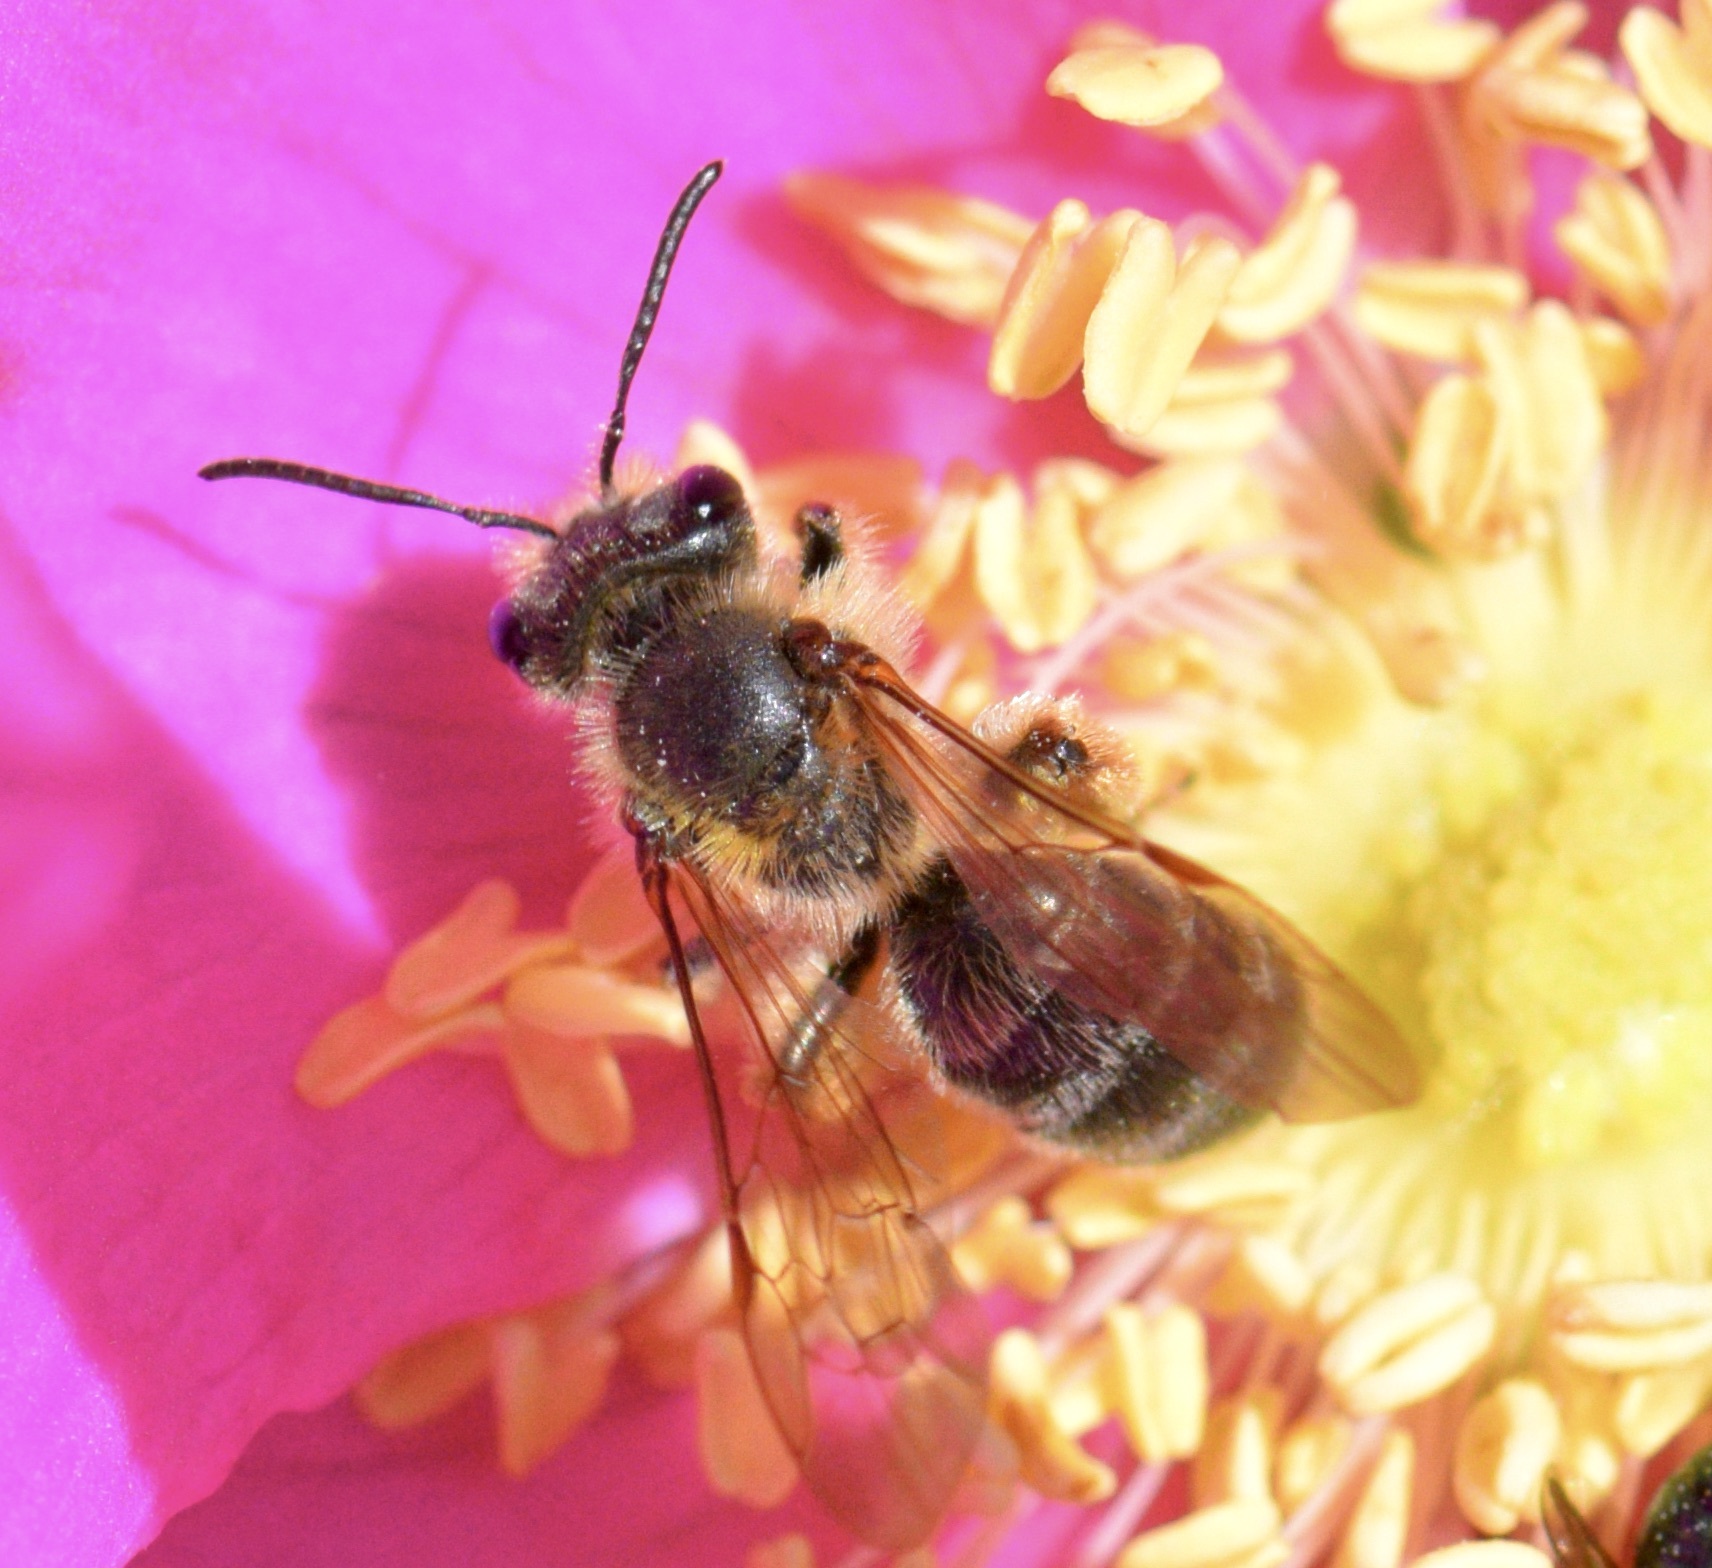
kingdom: Animalia
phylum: Arthropoda
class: Insecta
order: Hymenoptera
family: Andrenidae
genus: Andrena
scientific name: Andrena thaspii
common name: Parsnip miner bee
